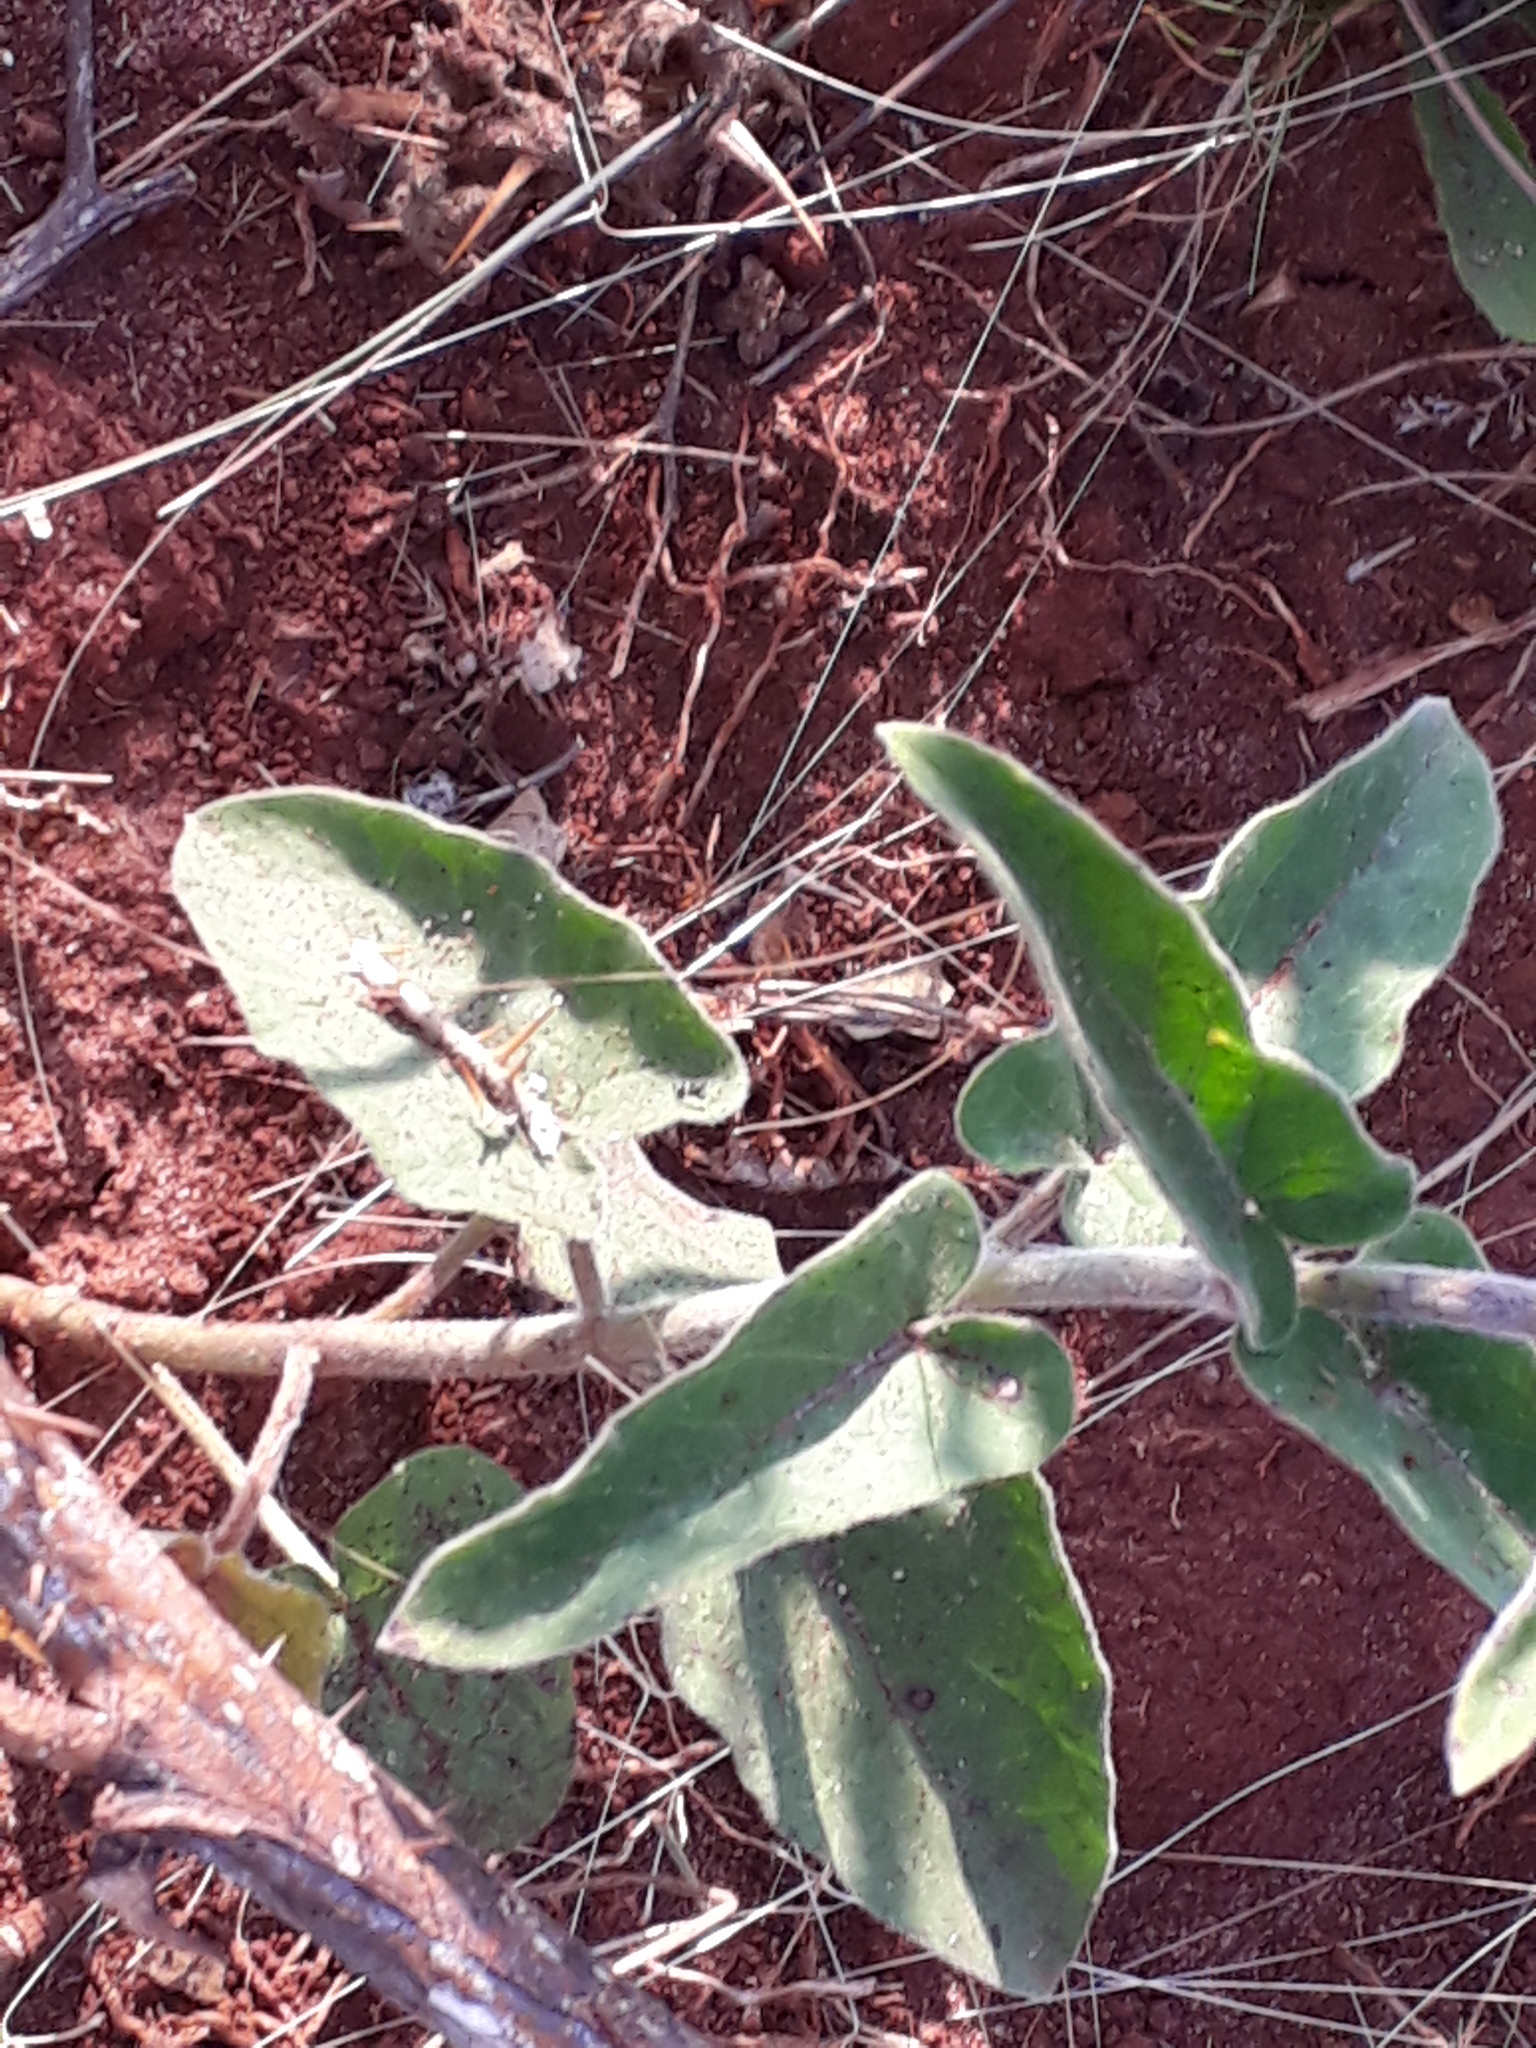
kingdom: Plantae
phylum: Tracheophyta
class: Magnoliopsida
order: Gentianales
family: Apocynaceae
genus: Oxypetalum
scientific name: Oxypetalum solanoides
